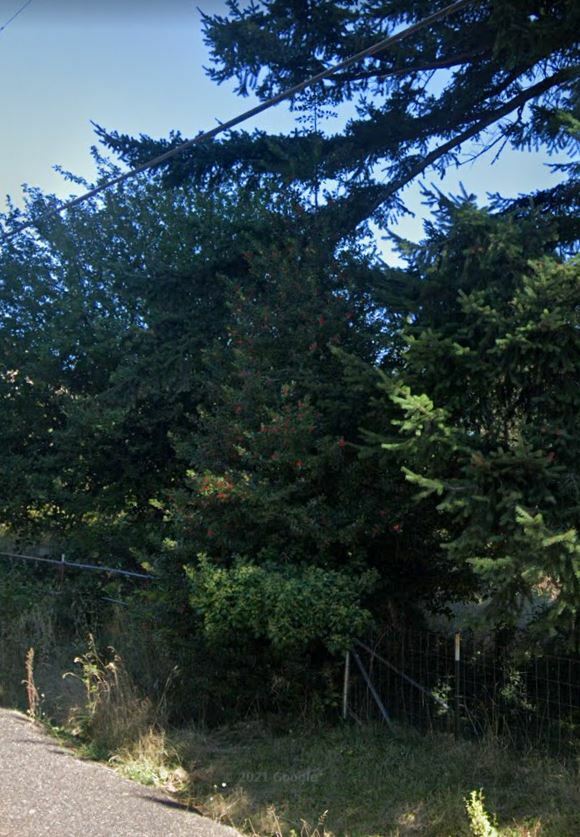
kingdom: Plantae
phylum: Tracheophyta
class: Magnoliopsida
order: Aquifoliales
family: Aquifoliaceae
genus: Ilex
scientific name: Ilex aquifolium
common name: English holly
